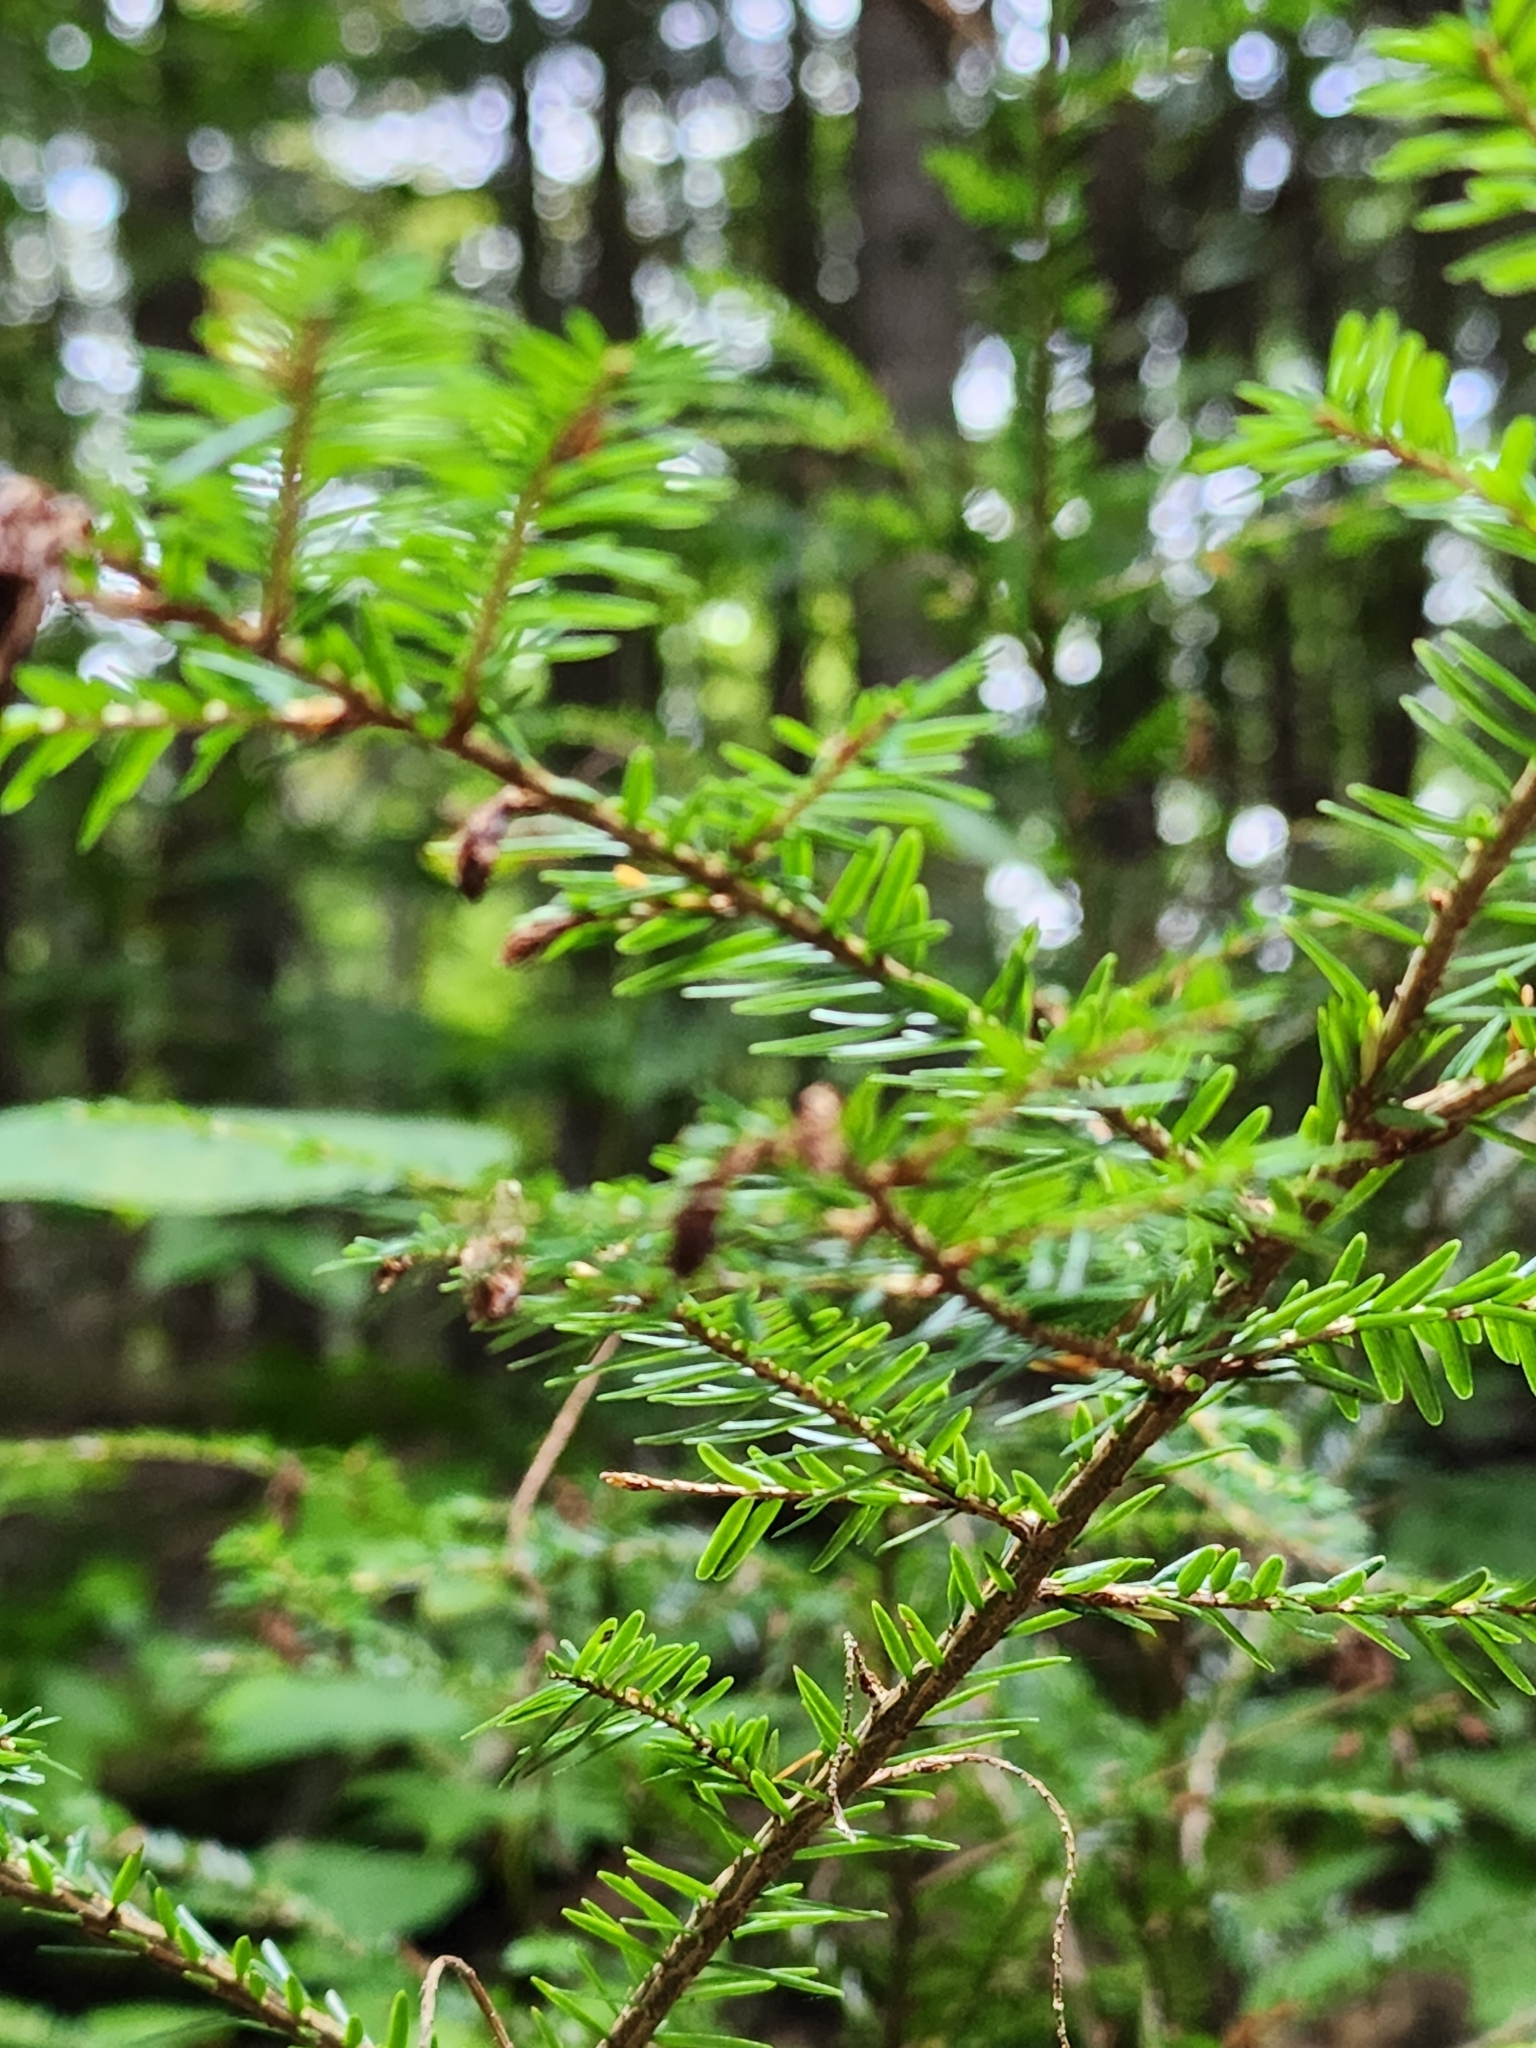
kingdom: Plantae
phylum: Tracheophyta
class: Pinopsida
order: Pinales
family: Pinaceae
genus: Tsuga
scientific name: Tsuga canadensis
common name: Eastern hemlock
